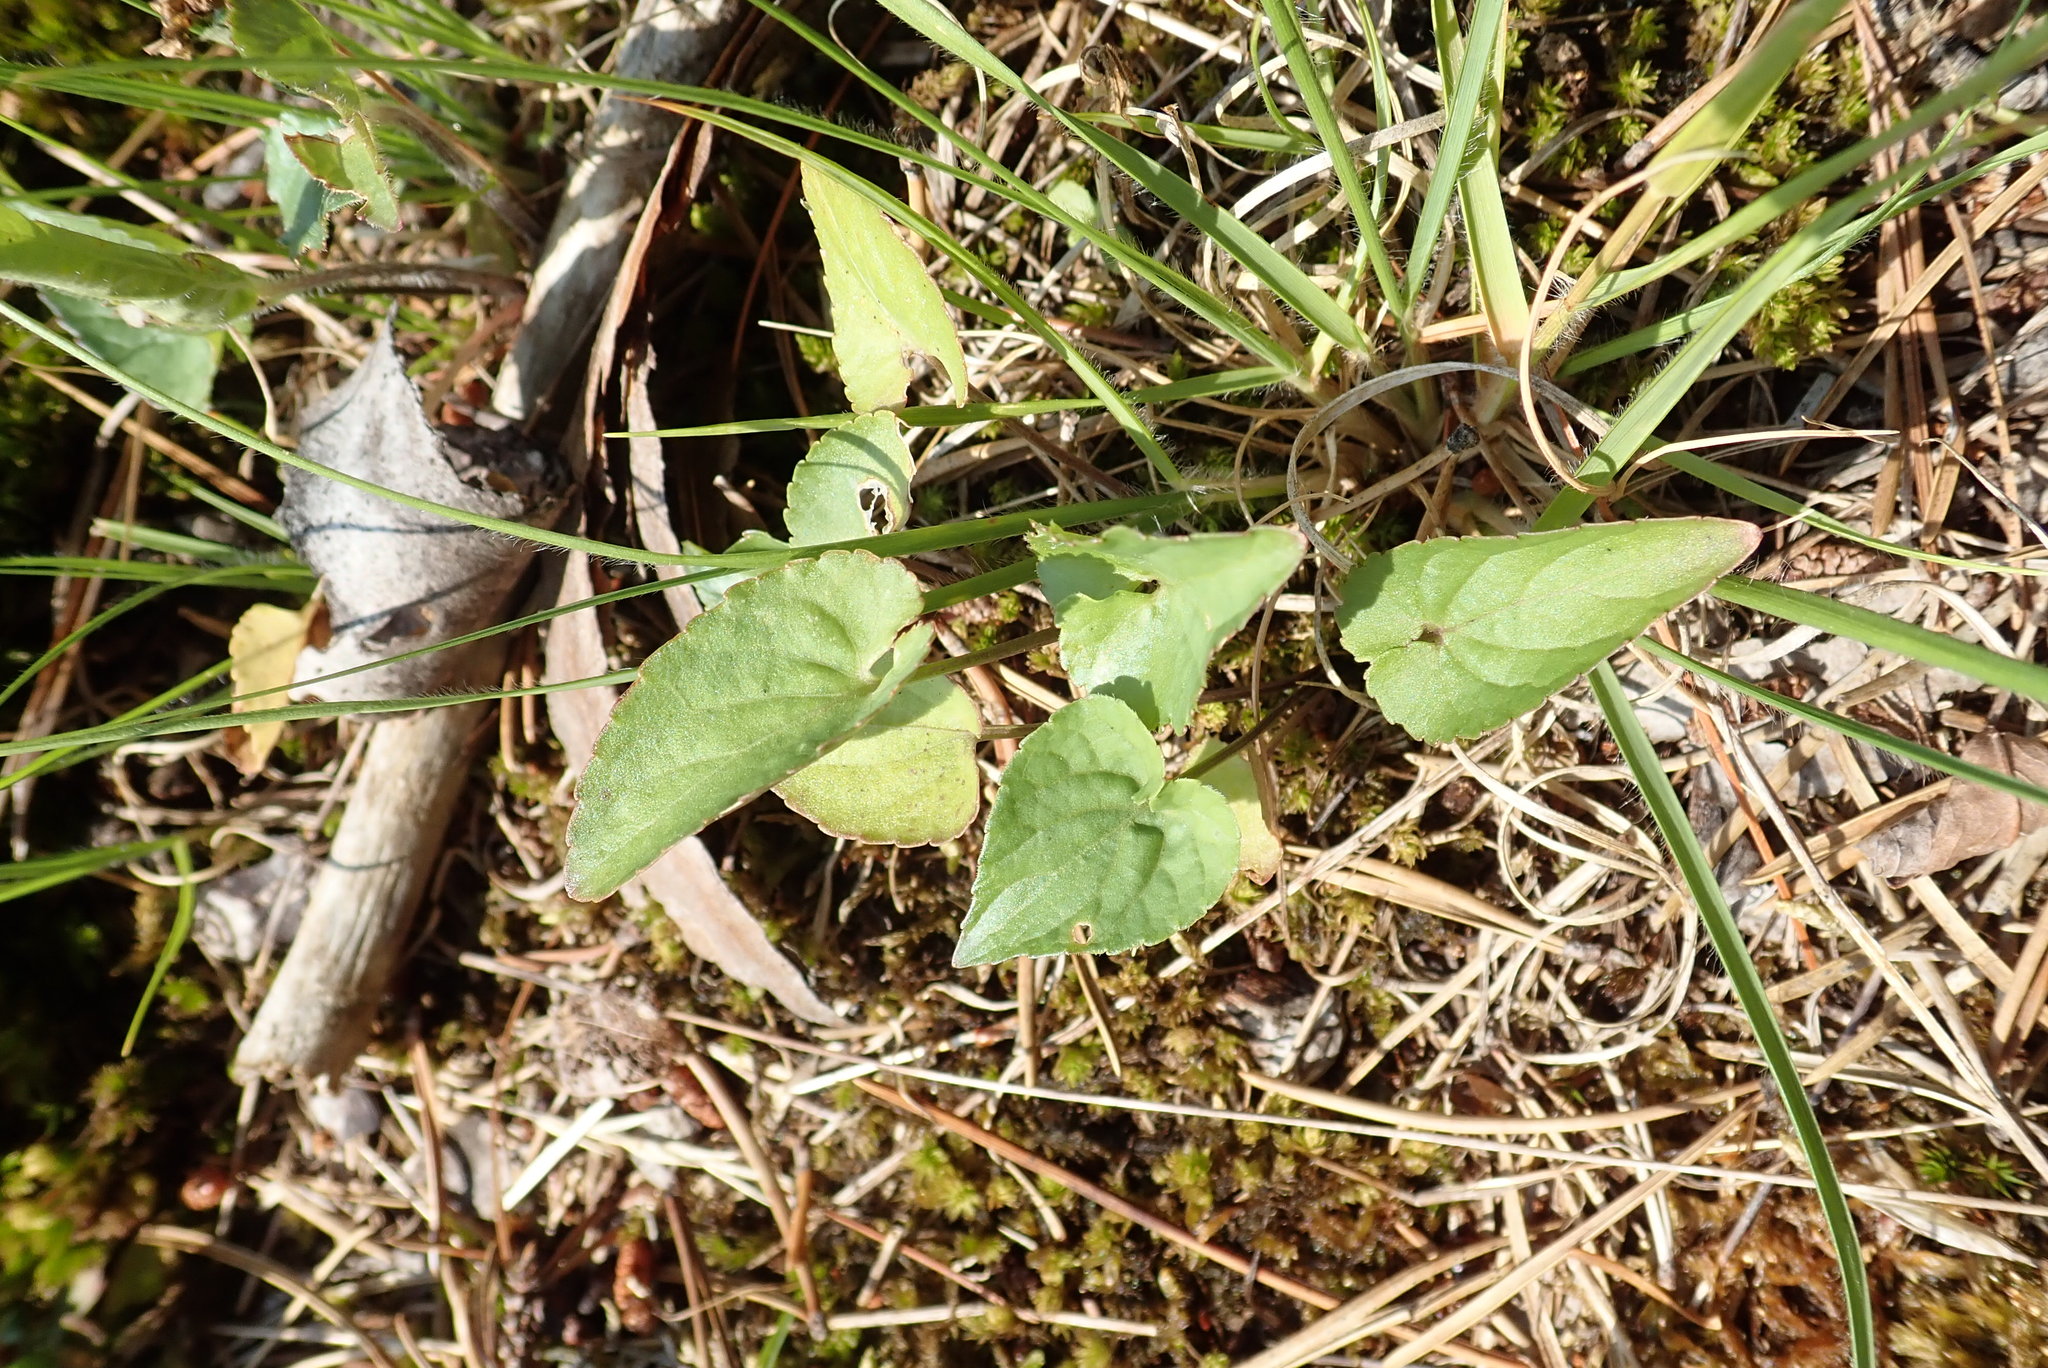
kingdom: Plantae
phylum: Tracheophyta
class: Magnoliopsida
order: Malpighiales
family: Violaceae
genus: Viola
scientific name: Viola novae-angliae
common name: New england blue violet
